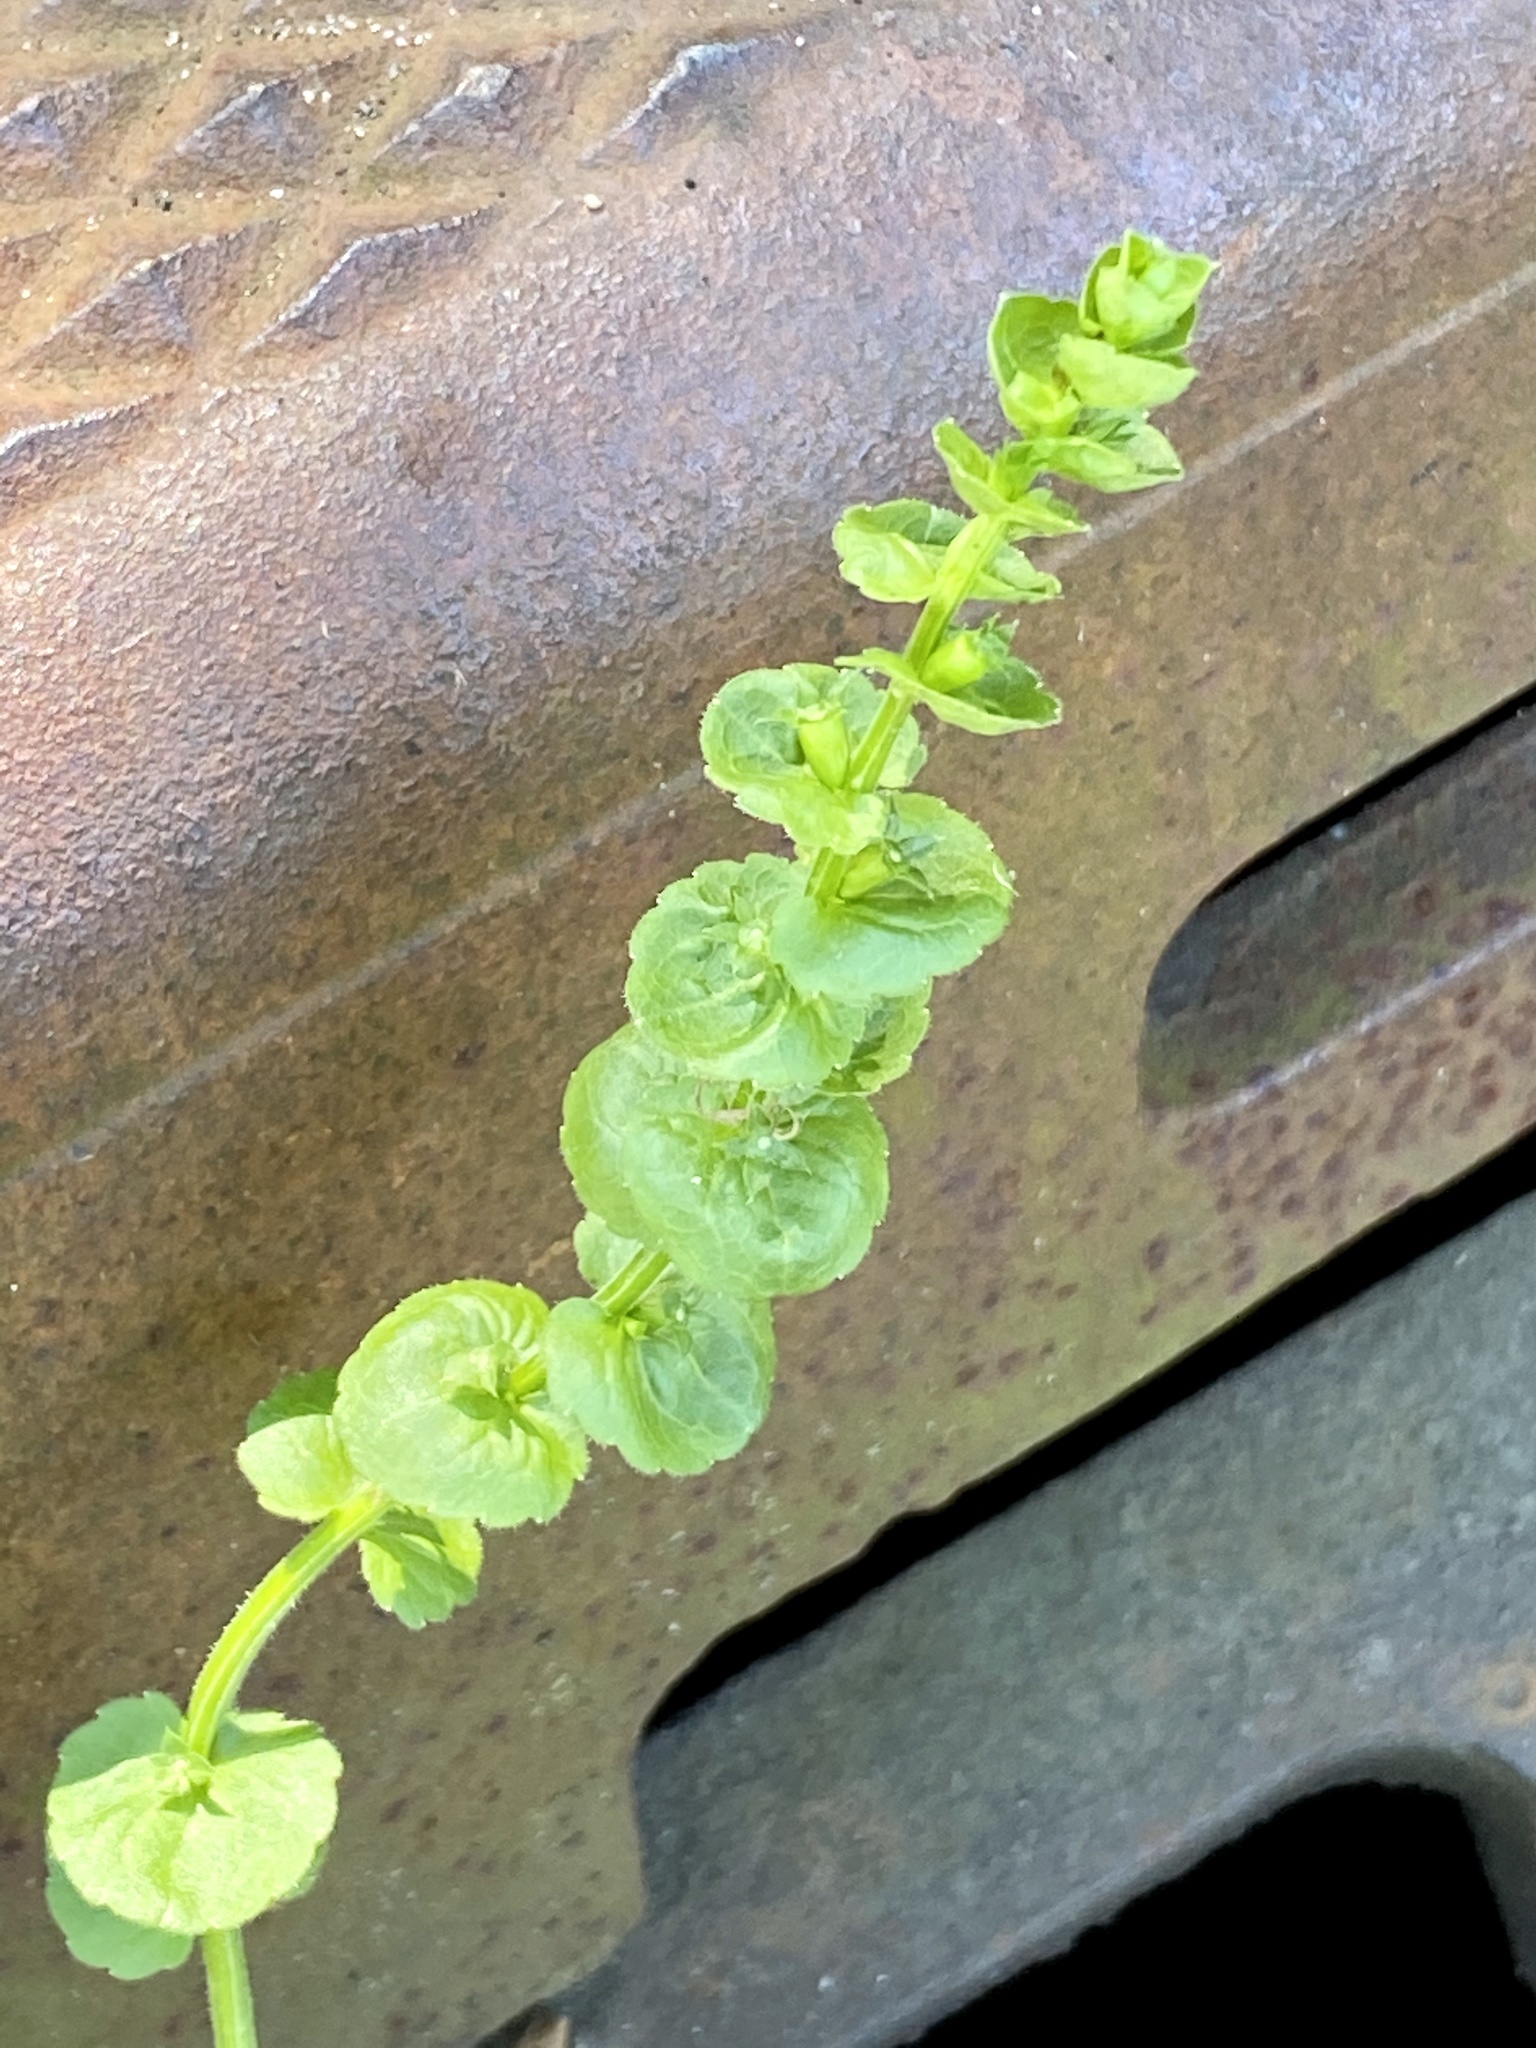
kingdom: Plantae
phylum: Tracheophyta
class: Magnoliopsida
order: Asterales
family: Campanulaceae
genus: Triodanis
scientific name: Triodanis perfoliata
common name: Clasping venus' looking-glass
